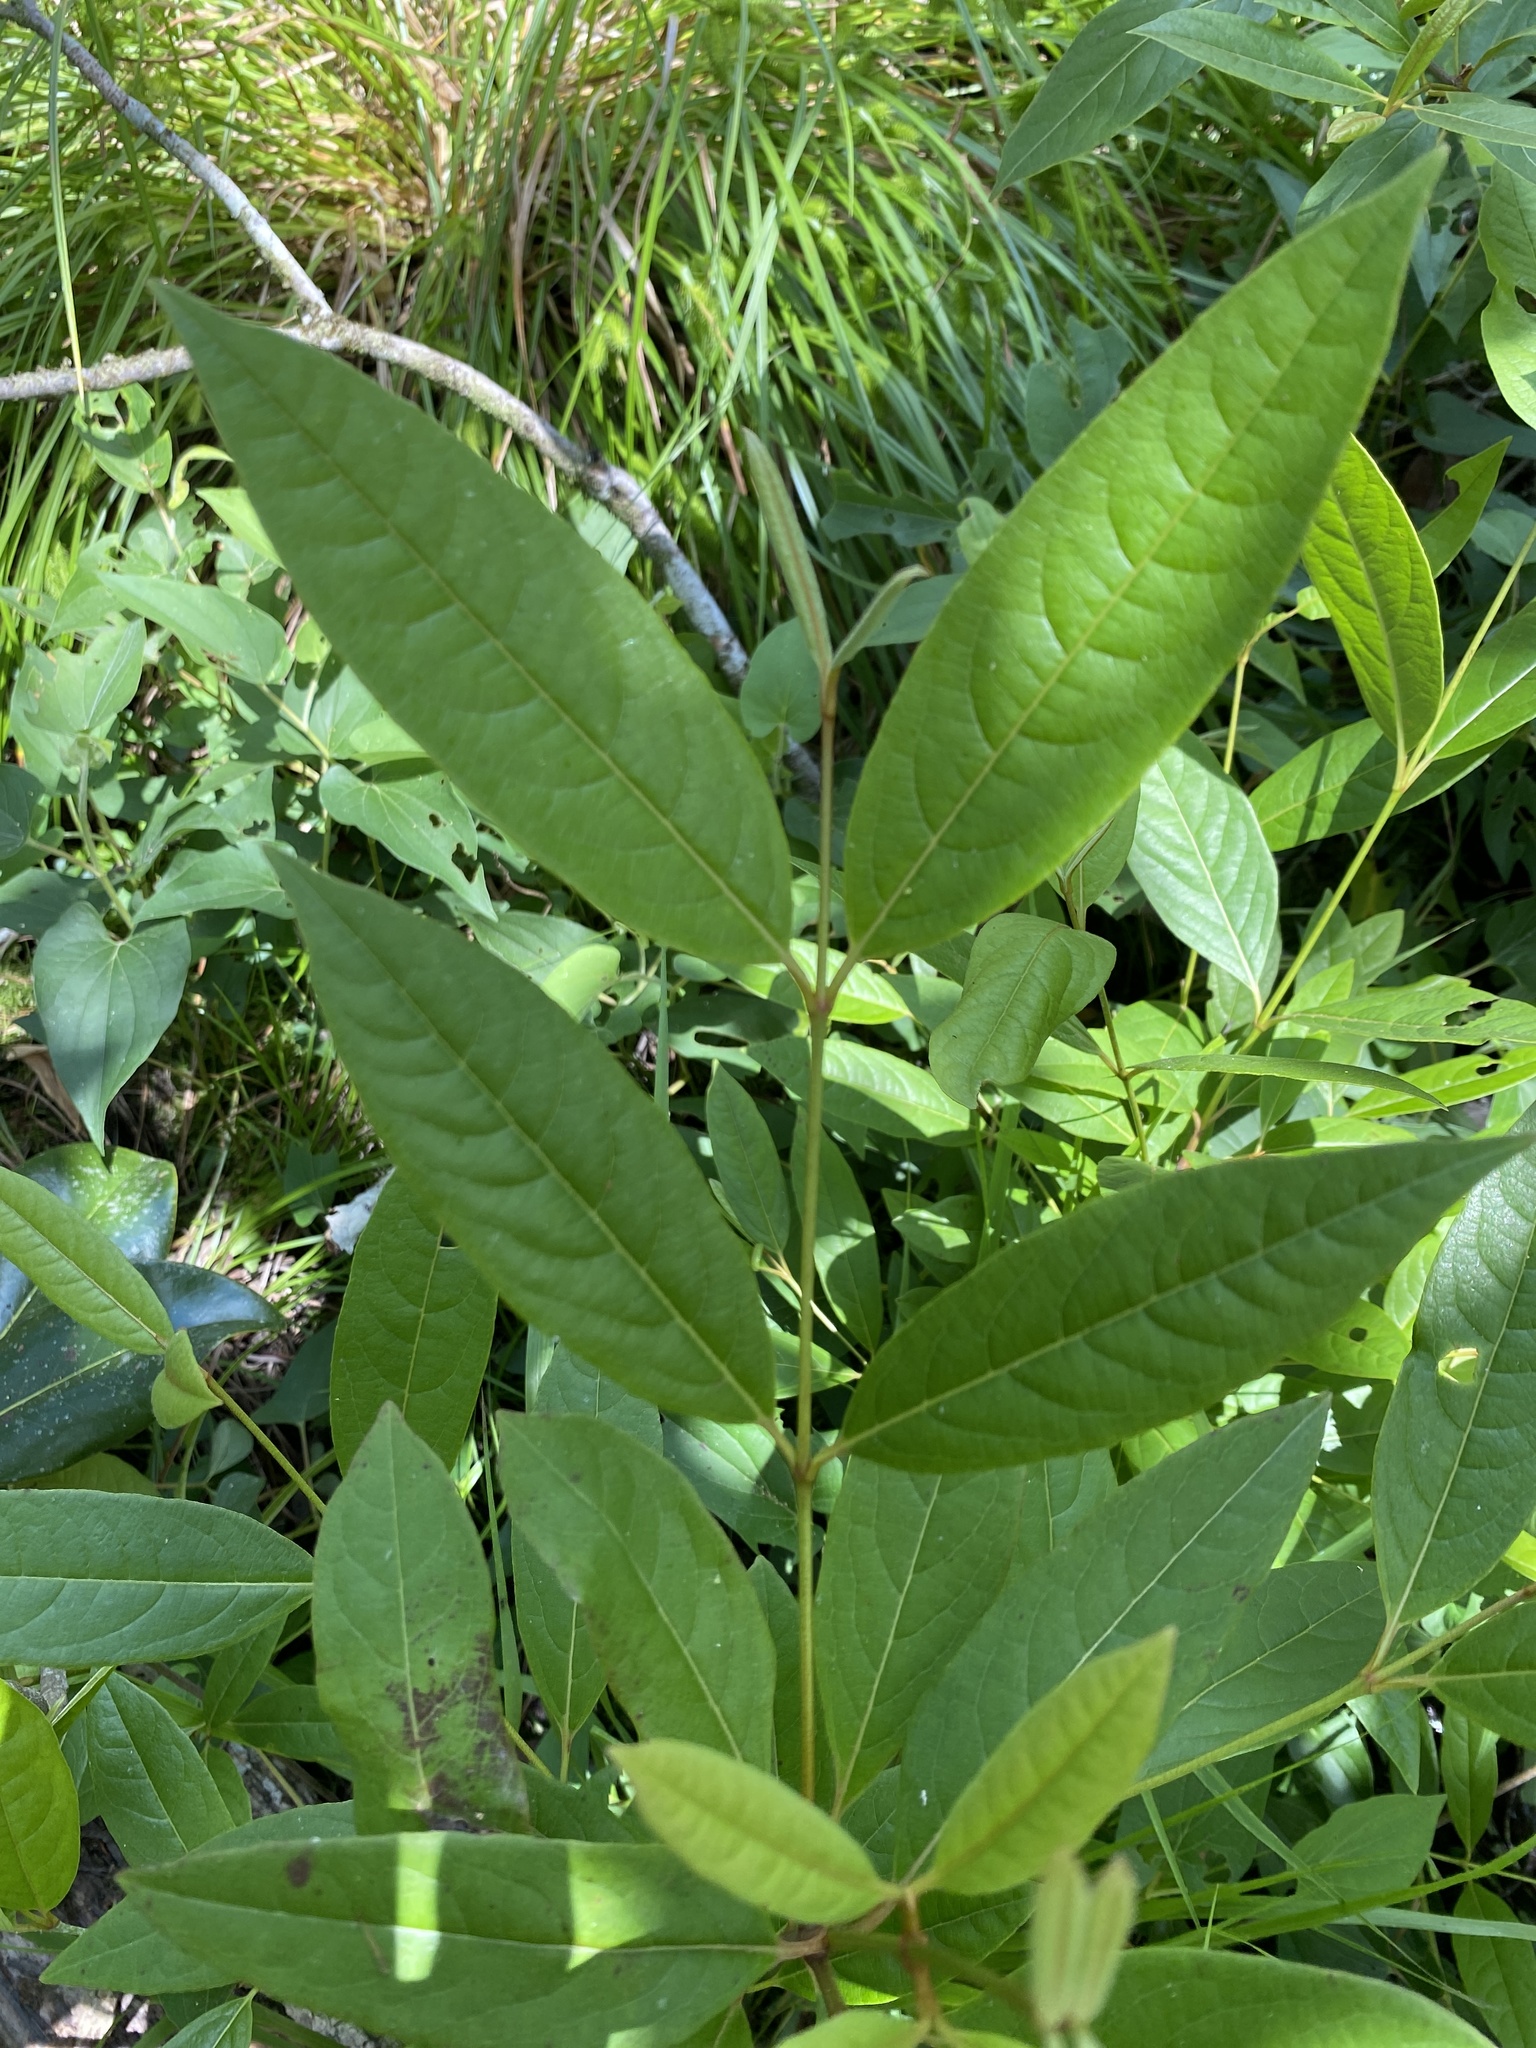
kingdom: Plantae
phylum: Tracheophyta
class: Magnoliopsida
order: Dipsacales
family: Viburnaceae
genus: Viburnum
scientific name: Viburnum nudum
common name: Possum haw
